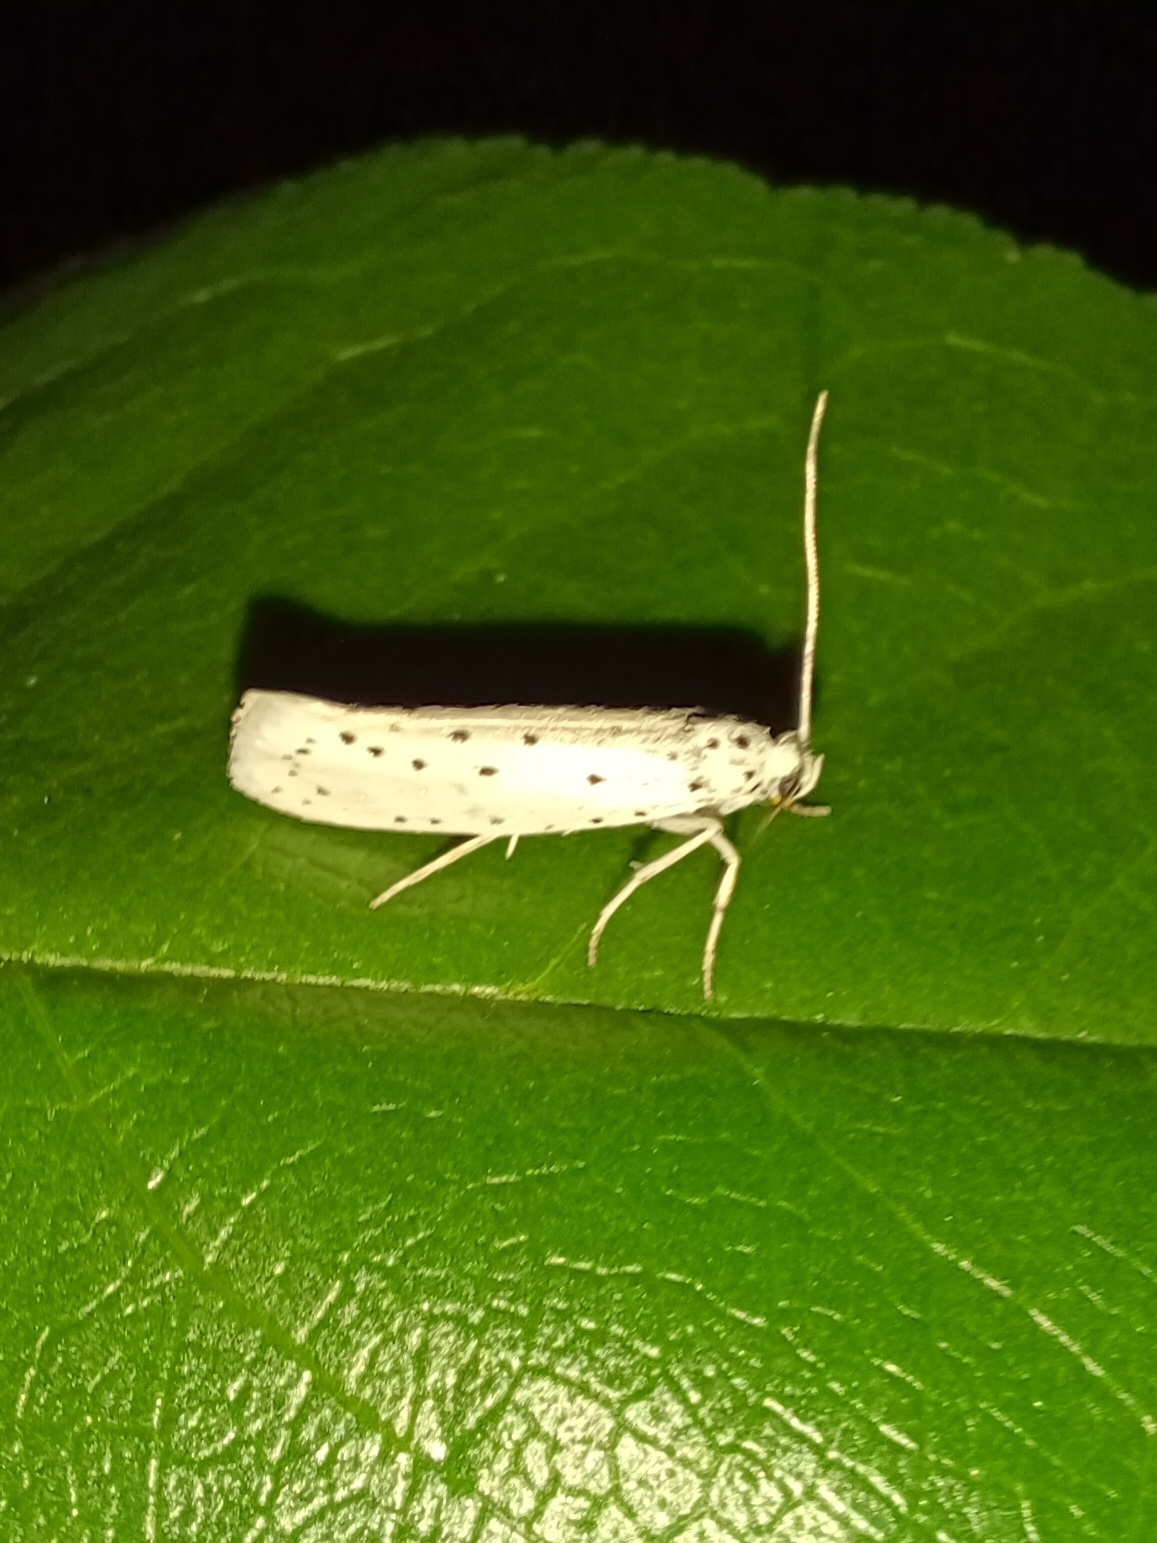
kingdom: Animalia
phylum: Arthropoda
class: Insecta
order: Lepidoptera
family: Yponomeutidae
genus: Yponomeuta
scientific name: Yponomeuta padella
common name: Orchard ermine
